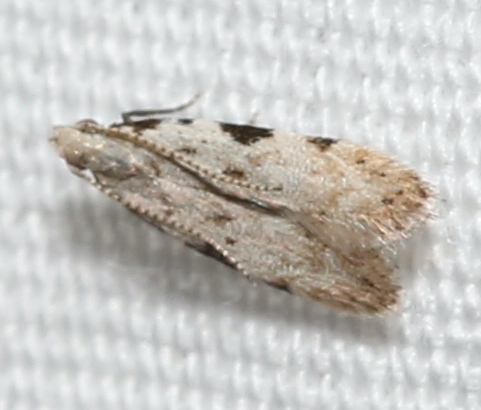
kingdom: Animalia
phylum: Arthropoda
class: Insecta
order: Lepidoptera
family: Autostichidae
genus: Taygete
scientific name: Taygete gallaegenitella
